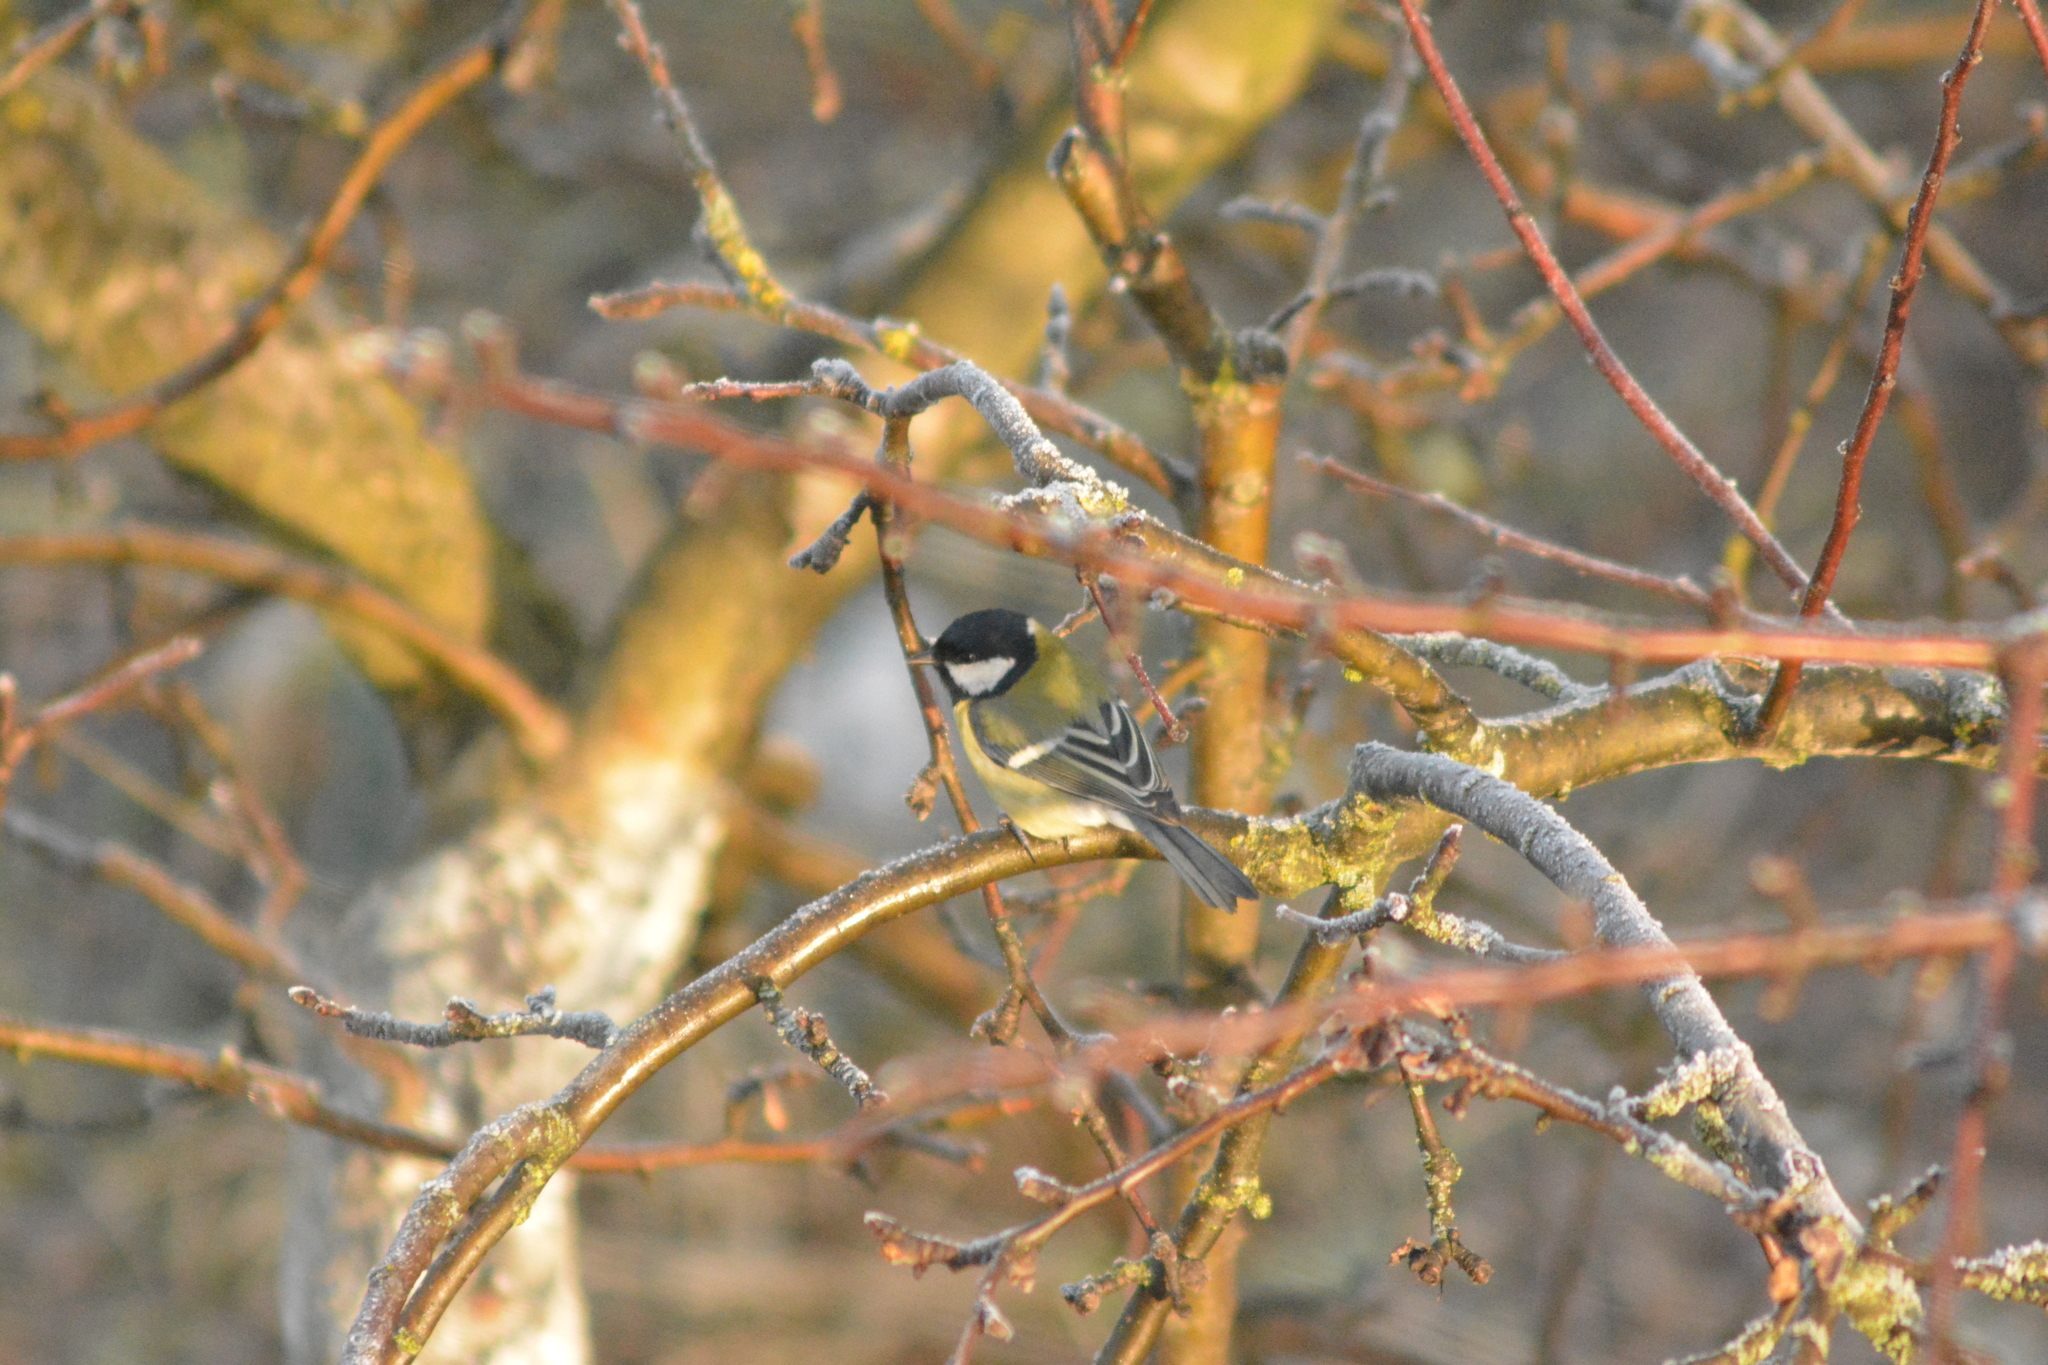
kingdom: Animalia
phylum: Chordata
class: Aves
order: Passeriformes
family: Paridae
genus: Parus
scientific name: Parus major
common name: Great tit
